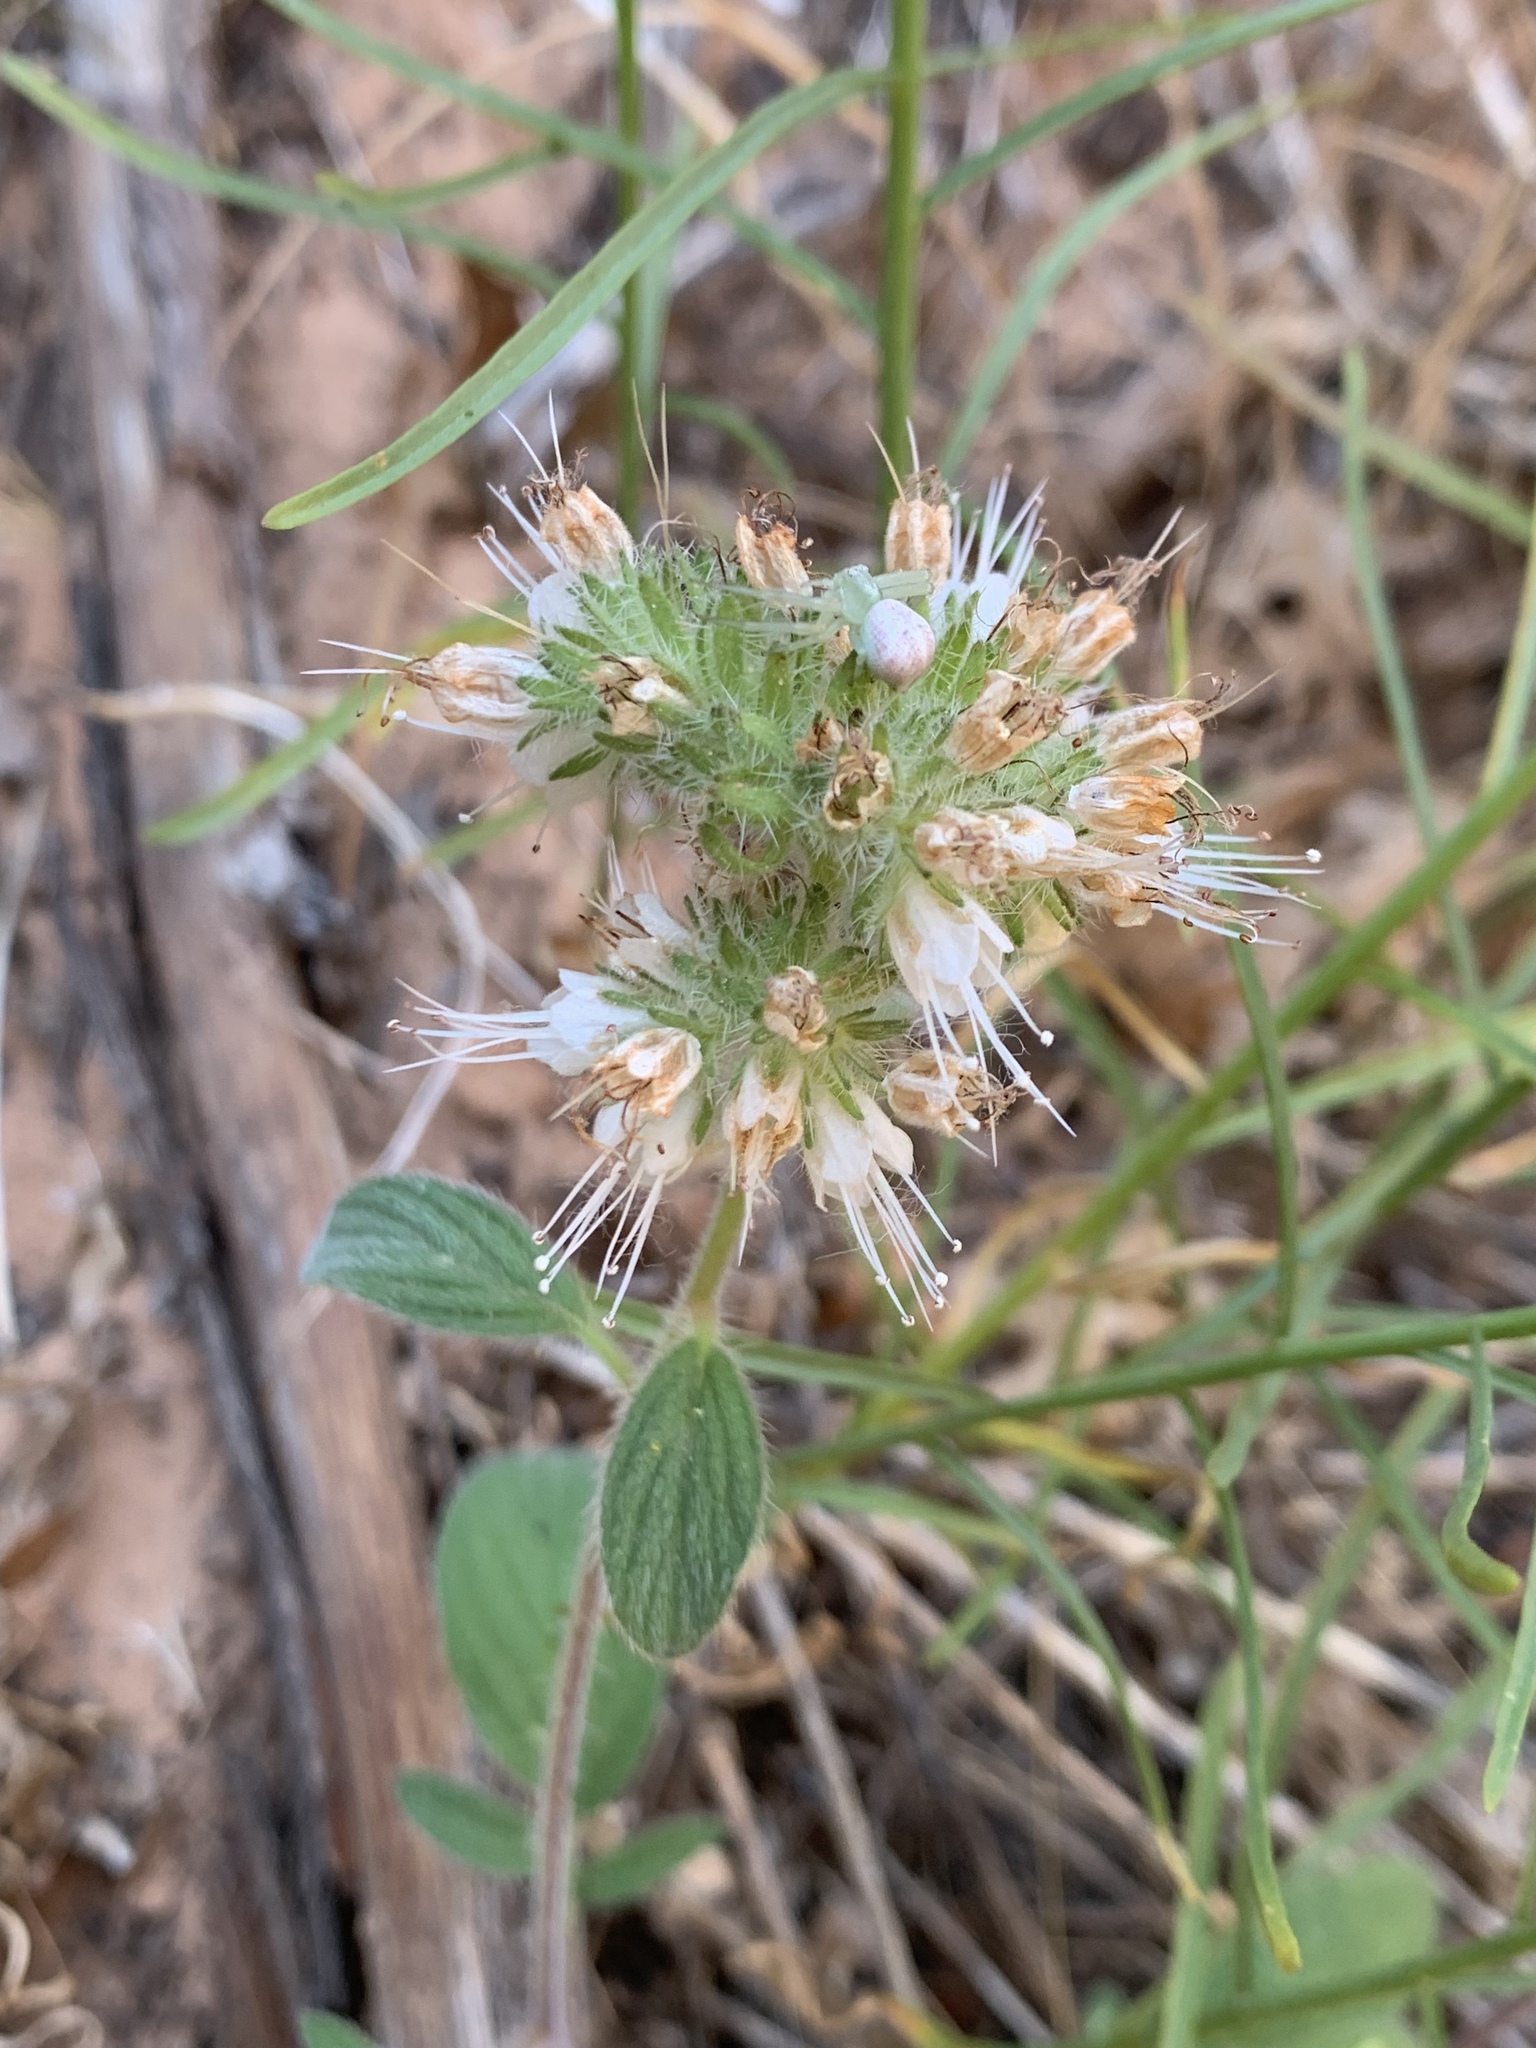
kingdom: Plantae
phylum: Tracheophyta
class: Magnoliopsida
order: Boraginales
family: Hydrophyllaceae
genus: Phacelia
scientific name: Phacelia heterophylla
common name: Variable-leaved phacelia
